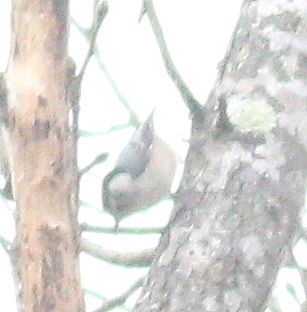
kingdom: Animalia
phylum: Chordata
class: Aves
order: Passeriformes
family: Sittidae
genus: Sitta
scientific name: Sitta carolinensis
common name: White-breasted nuthatch
